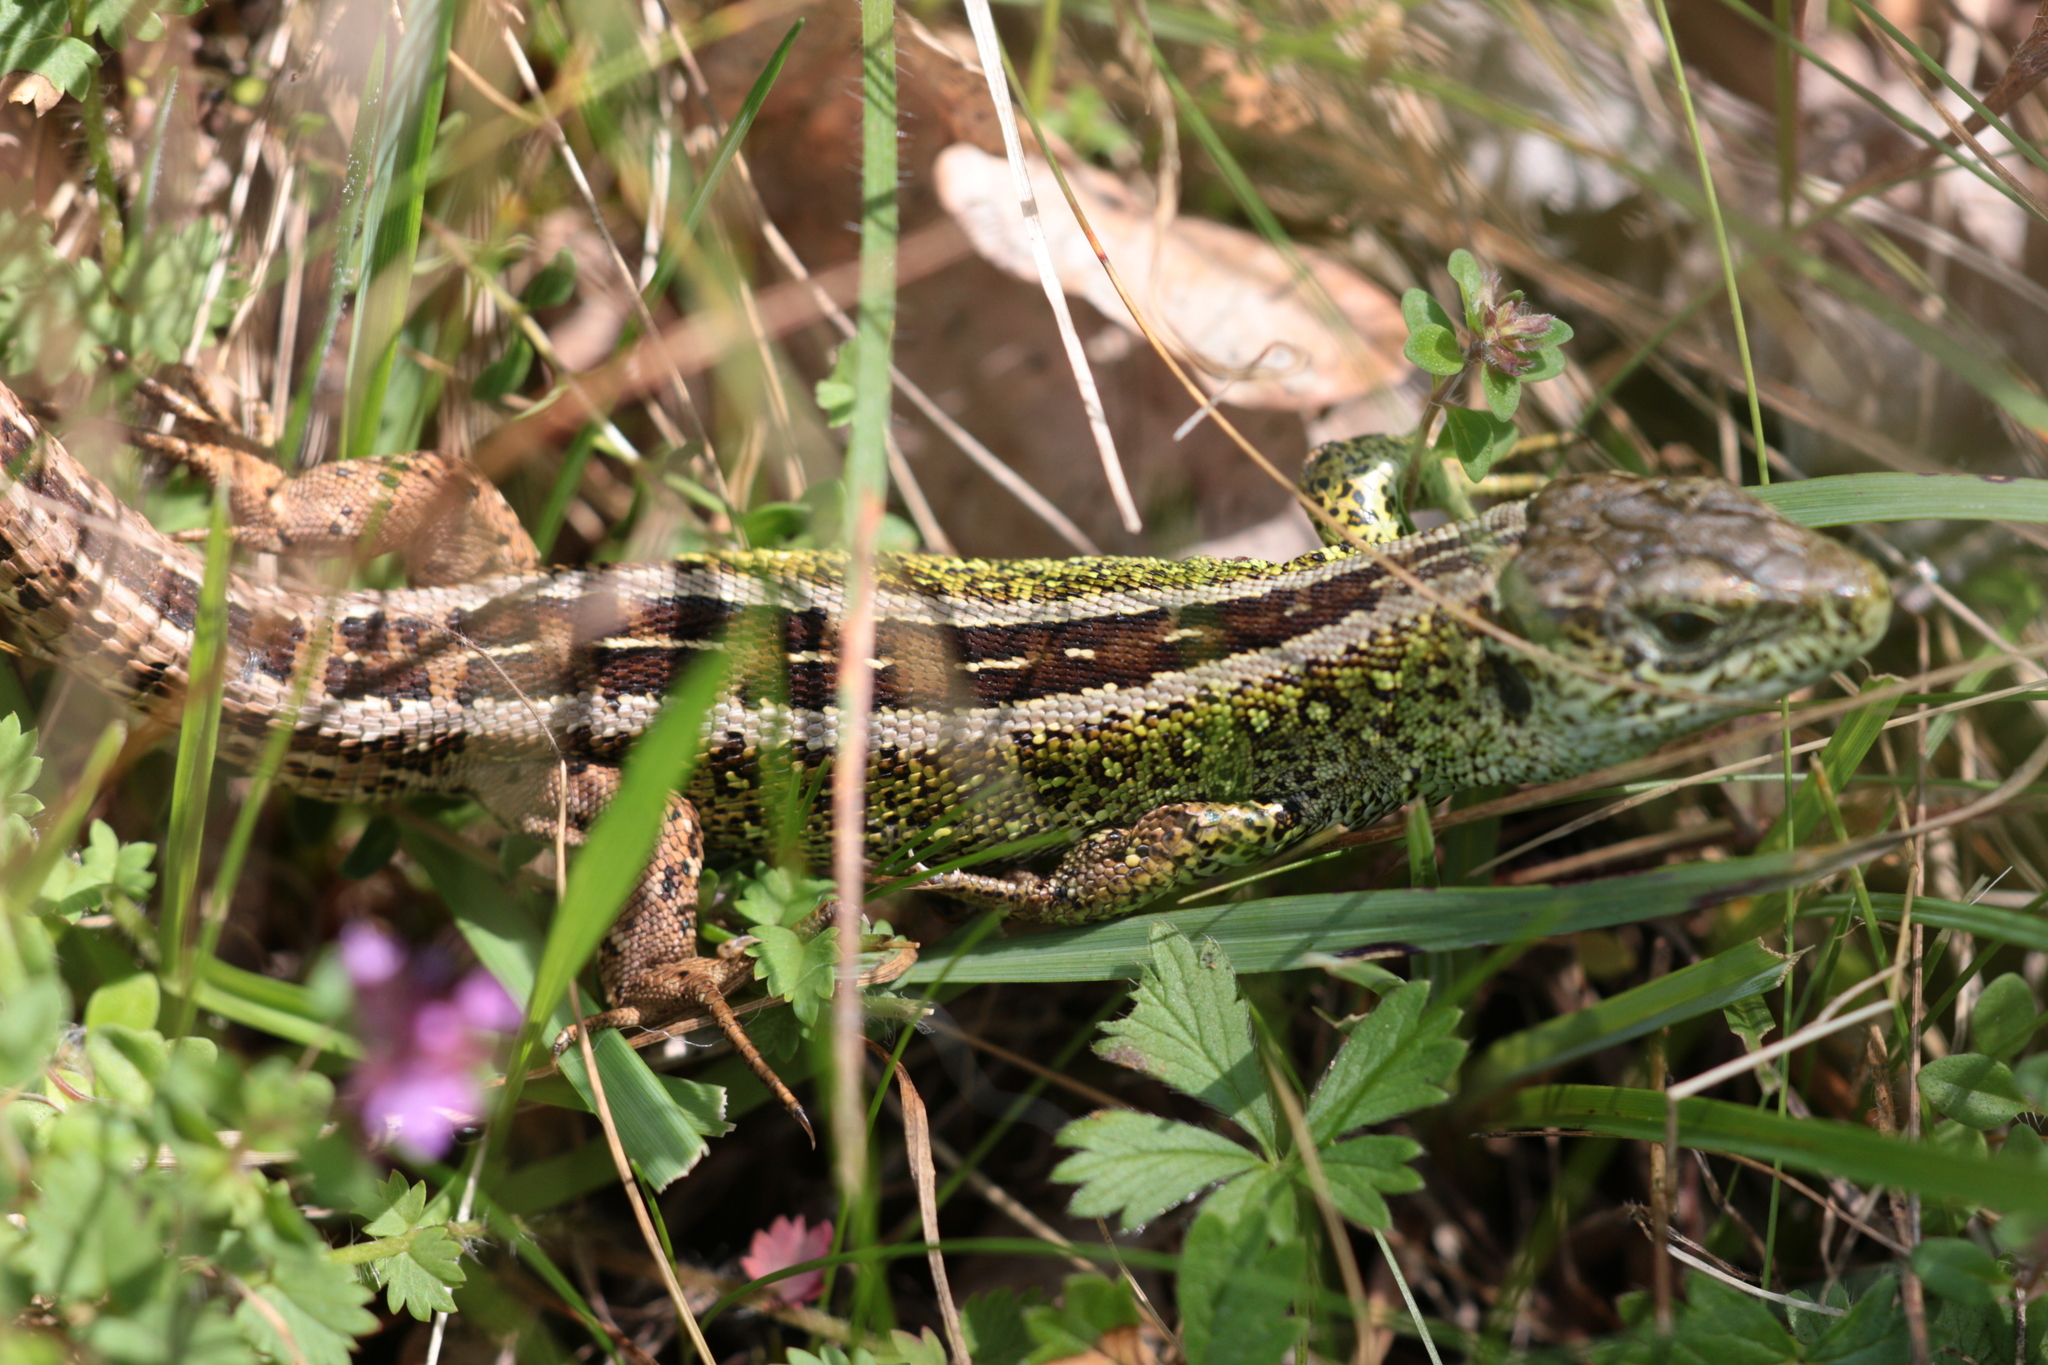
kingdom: Animalia
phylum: Chordata
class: Squamata
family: Lacertidae
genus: Lacerta
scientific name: Lacerta agilis
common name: Sand lizard
